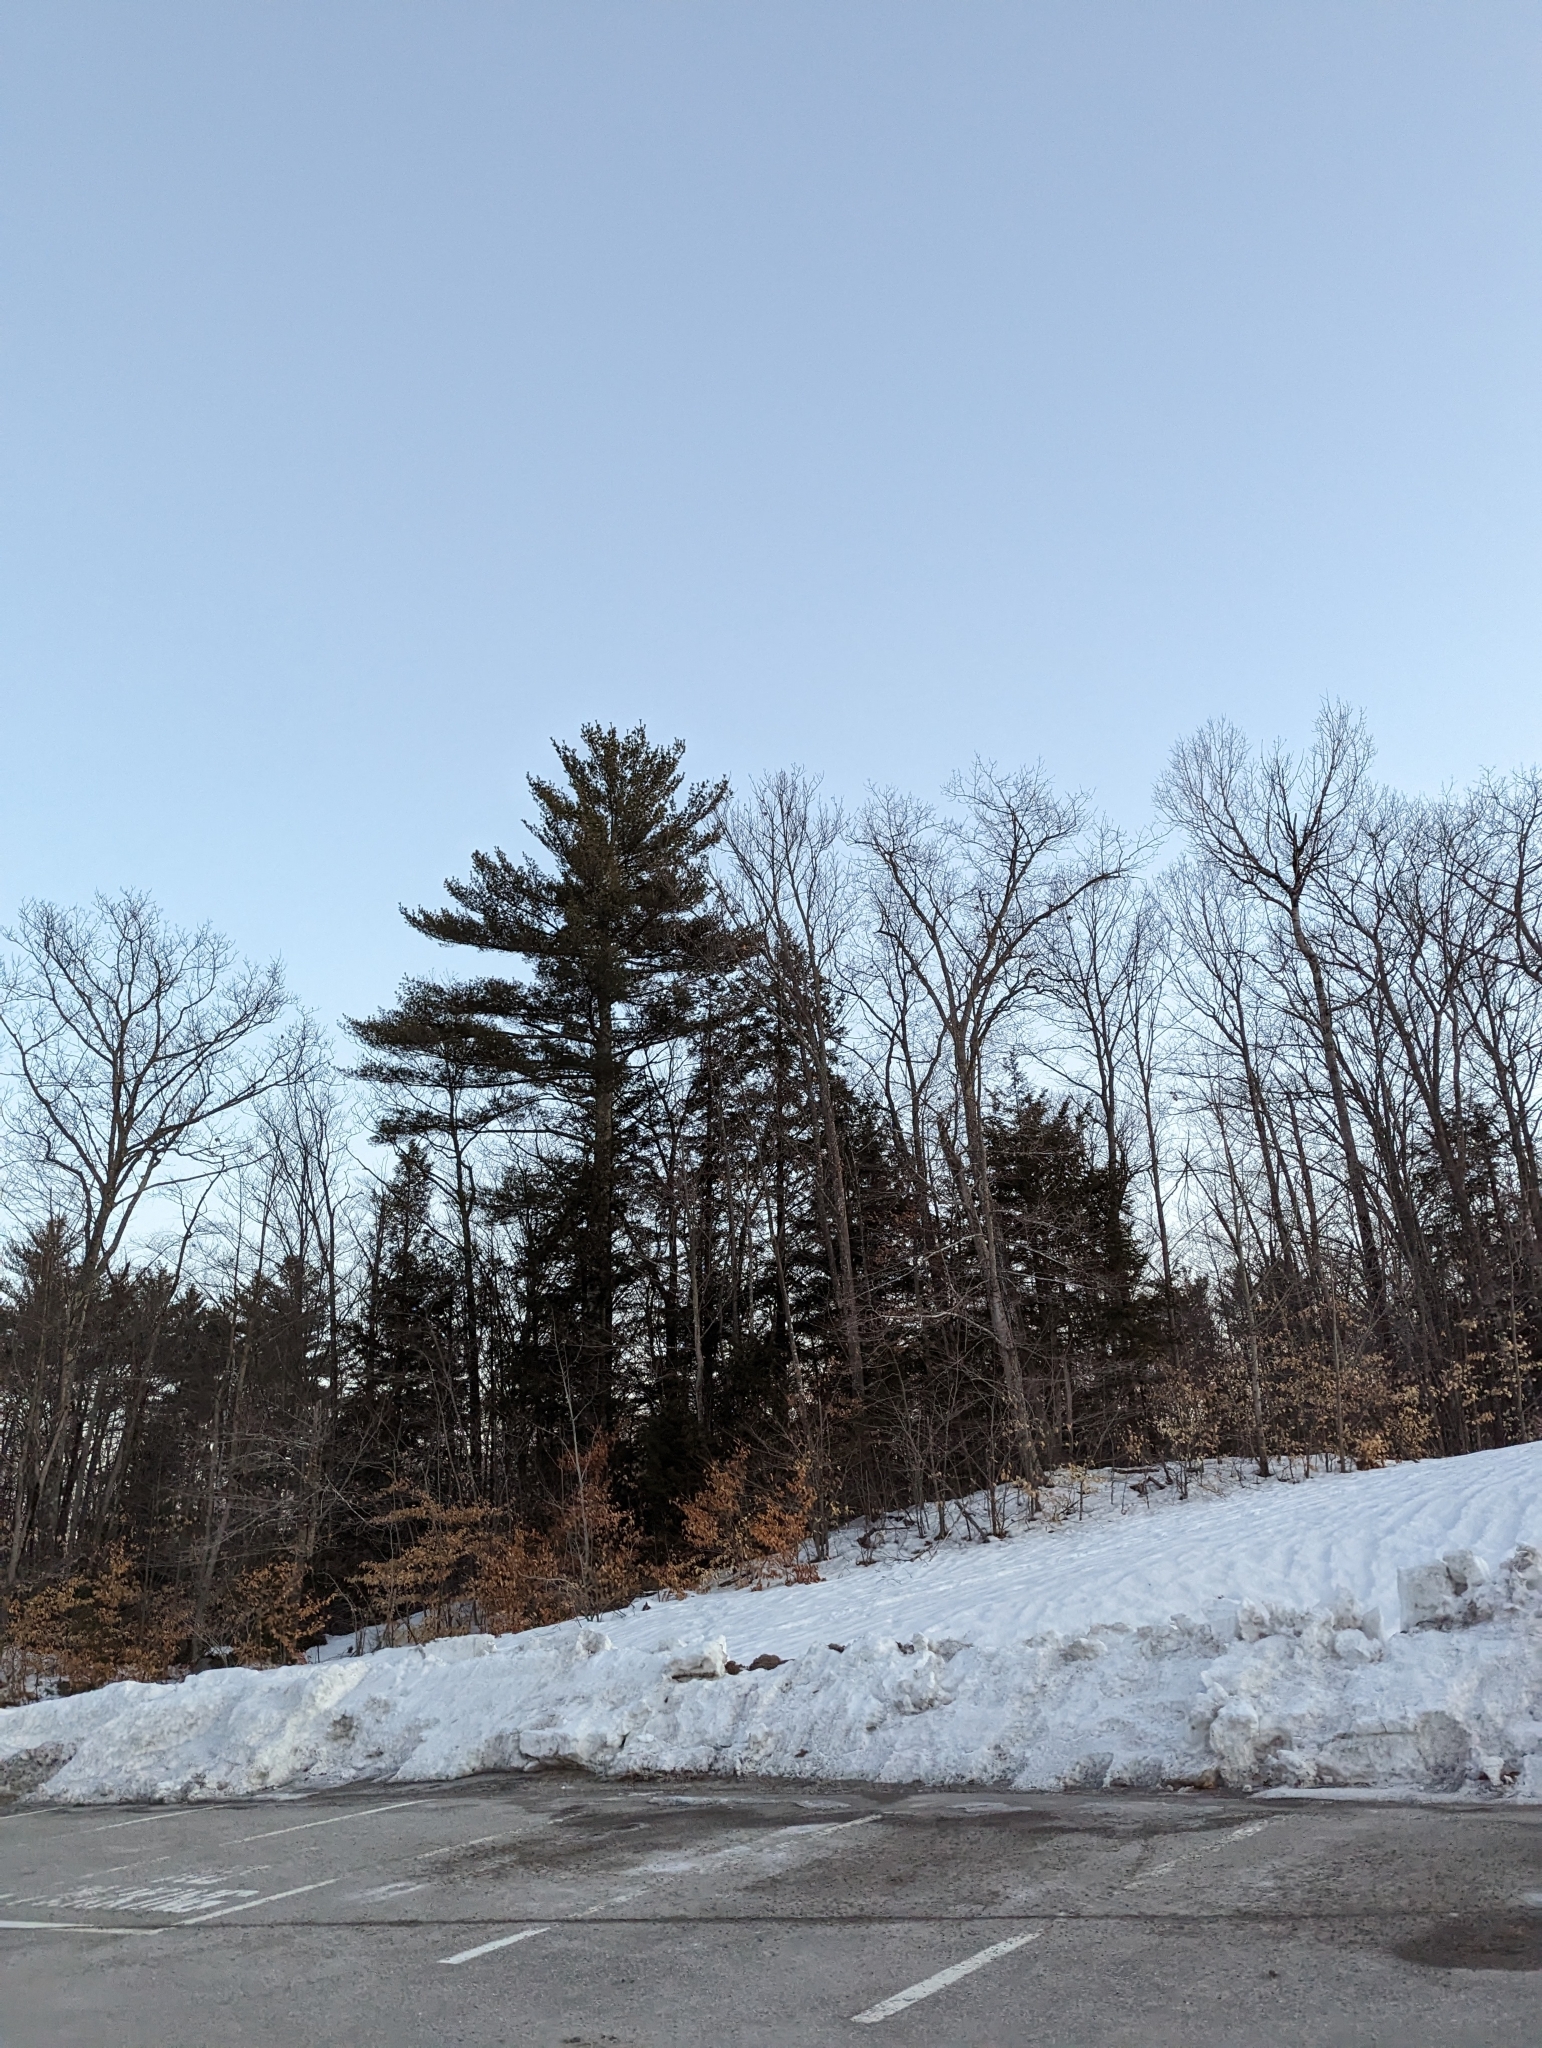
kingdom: Plantae
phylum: Tracheophyta
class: Pinopsida
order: Pinales
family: Pinaceae
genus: Pinus
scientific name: Pinus strobus
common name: Weymouth pine
